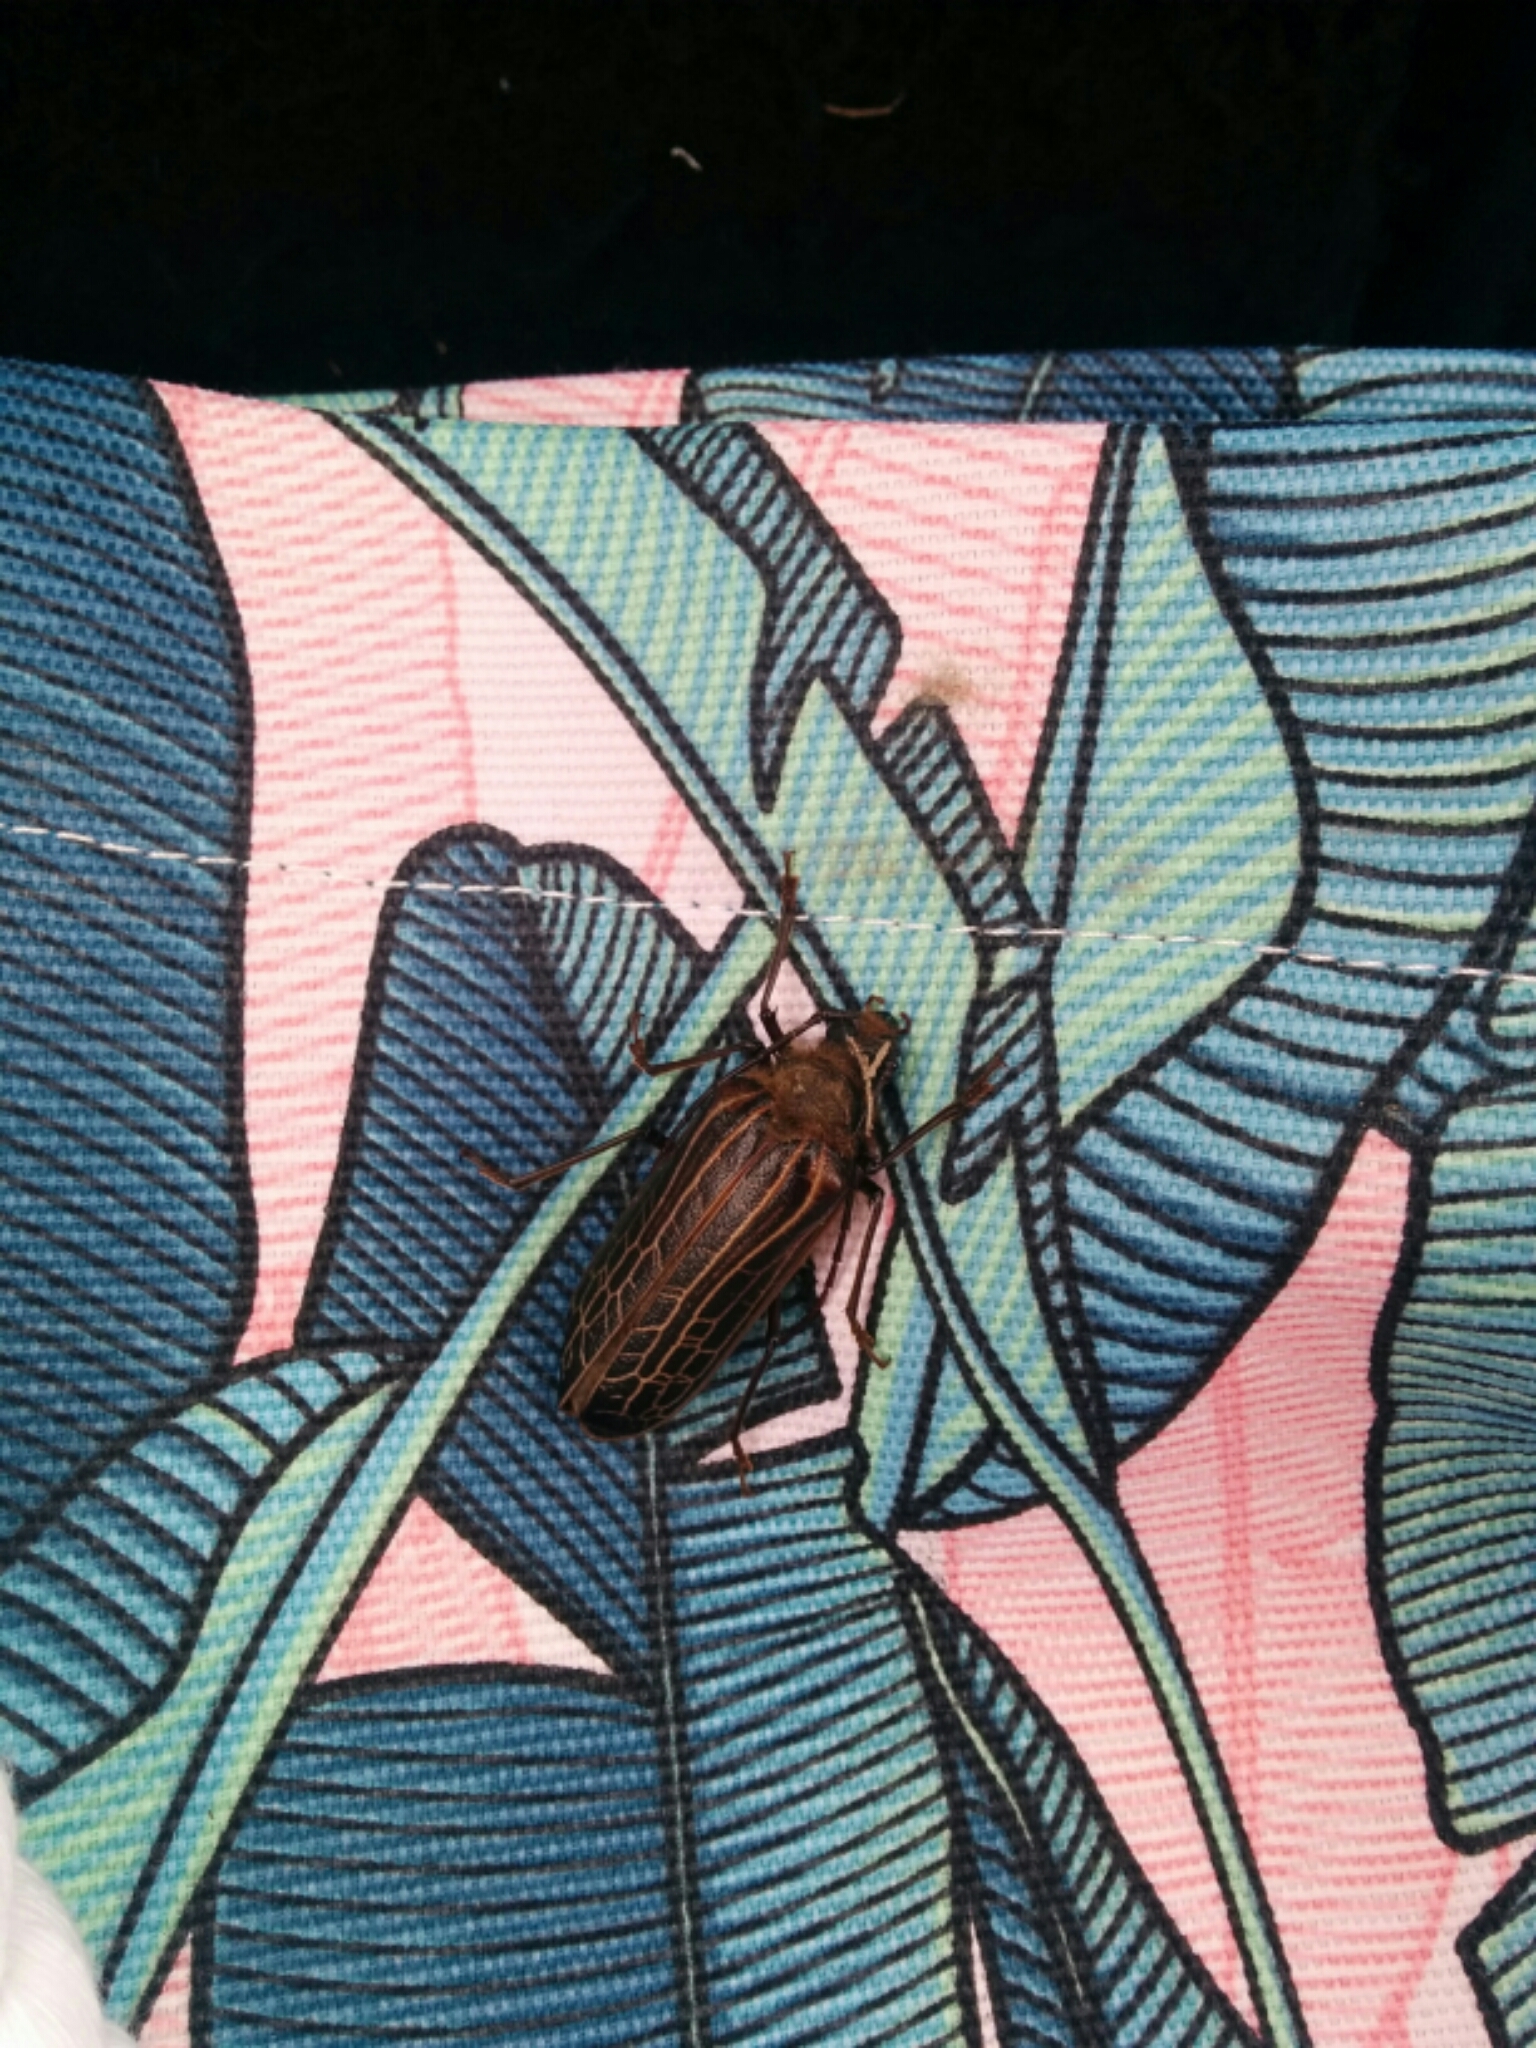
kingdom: Animalia
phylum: Arthropoda
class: Insecta
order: Coleoptera
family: Cerambycidae
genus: Prionoplus
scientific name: Prionoplus reticularis
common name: Huhu beetle
